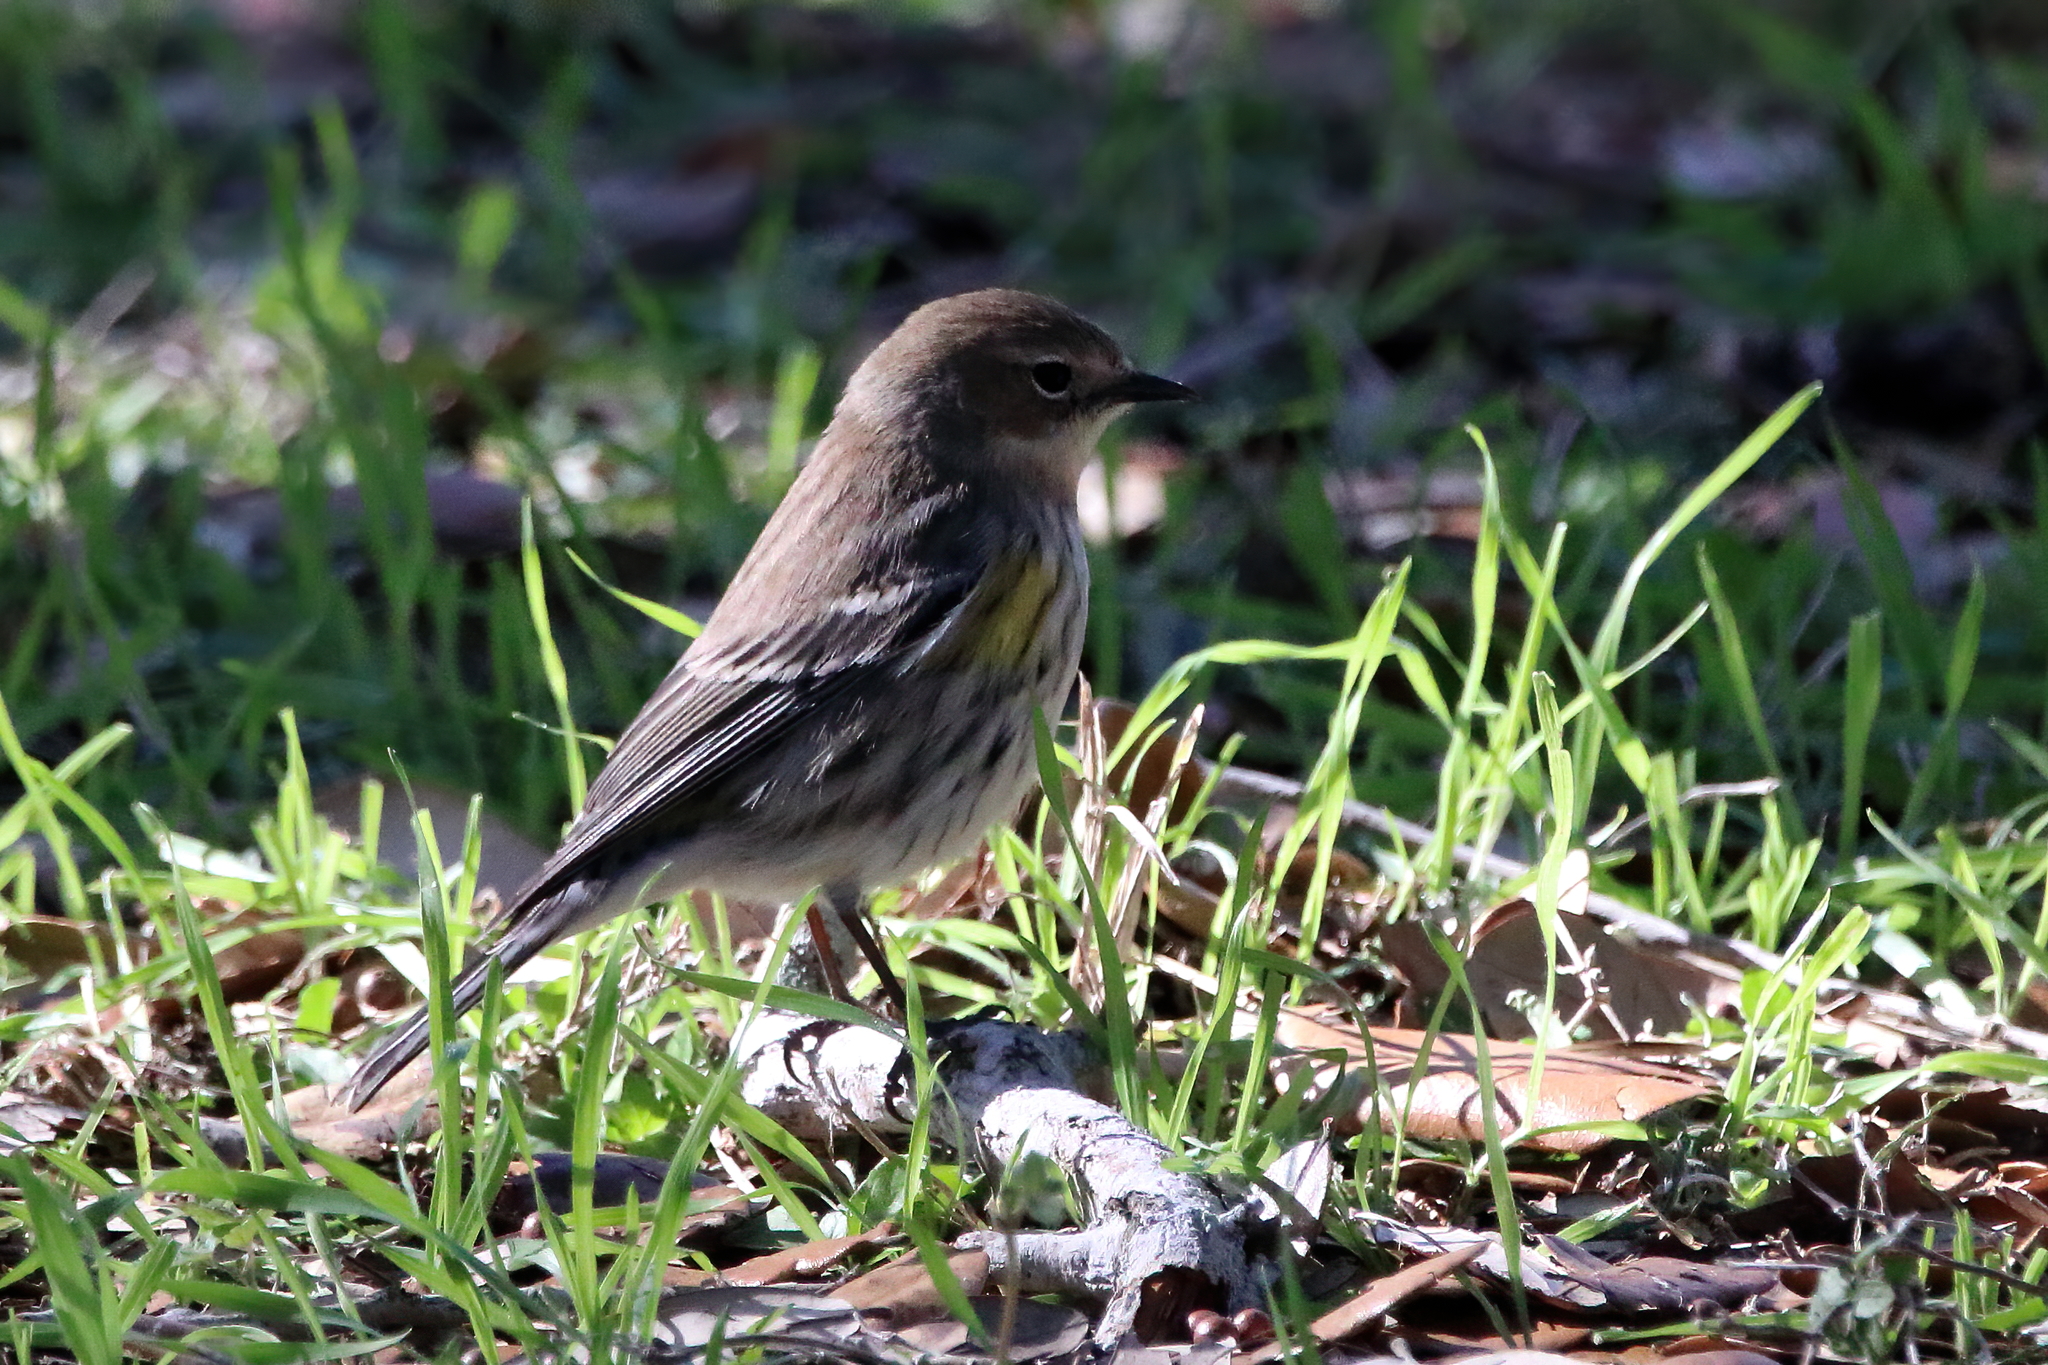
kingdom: Animalia
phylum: Chordata
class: Aves
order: Passeriformes
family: Parulidae
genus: Setophaga
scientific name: Setophaga coronata
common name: Myrtle warbler
